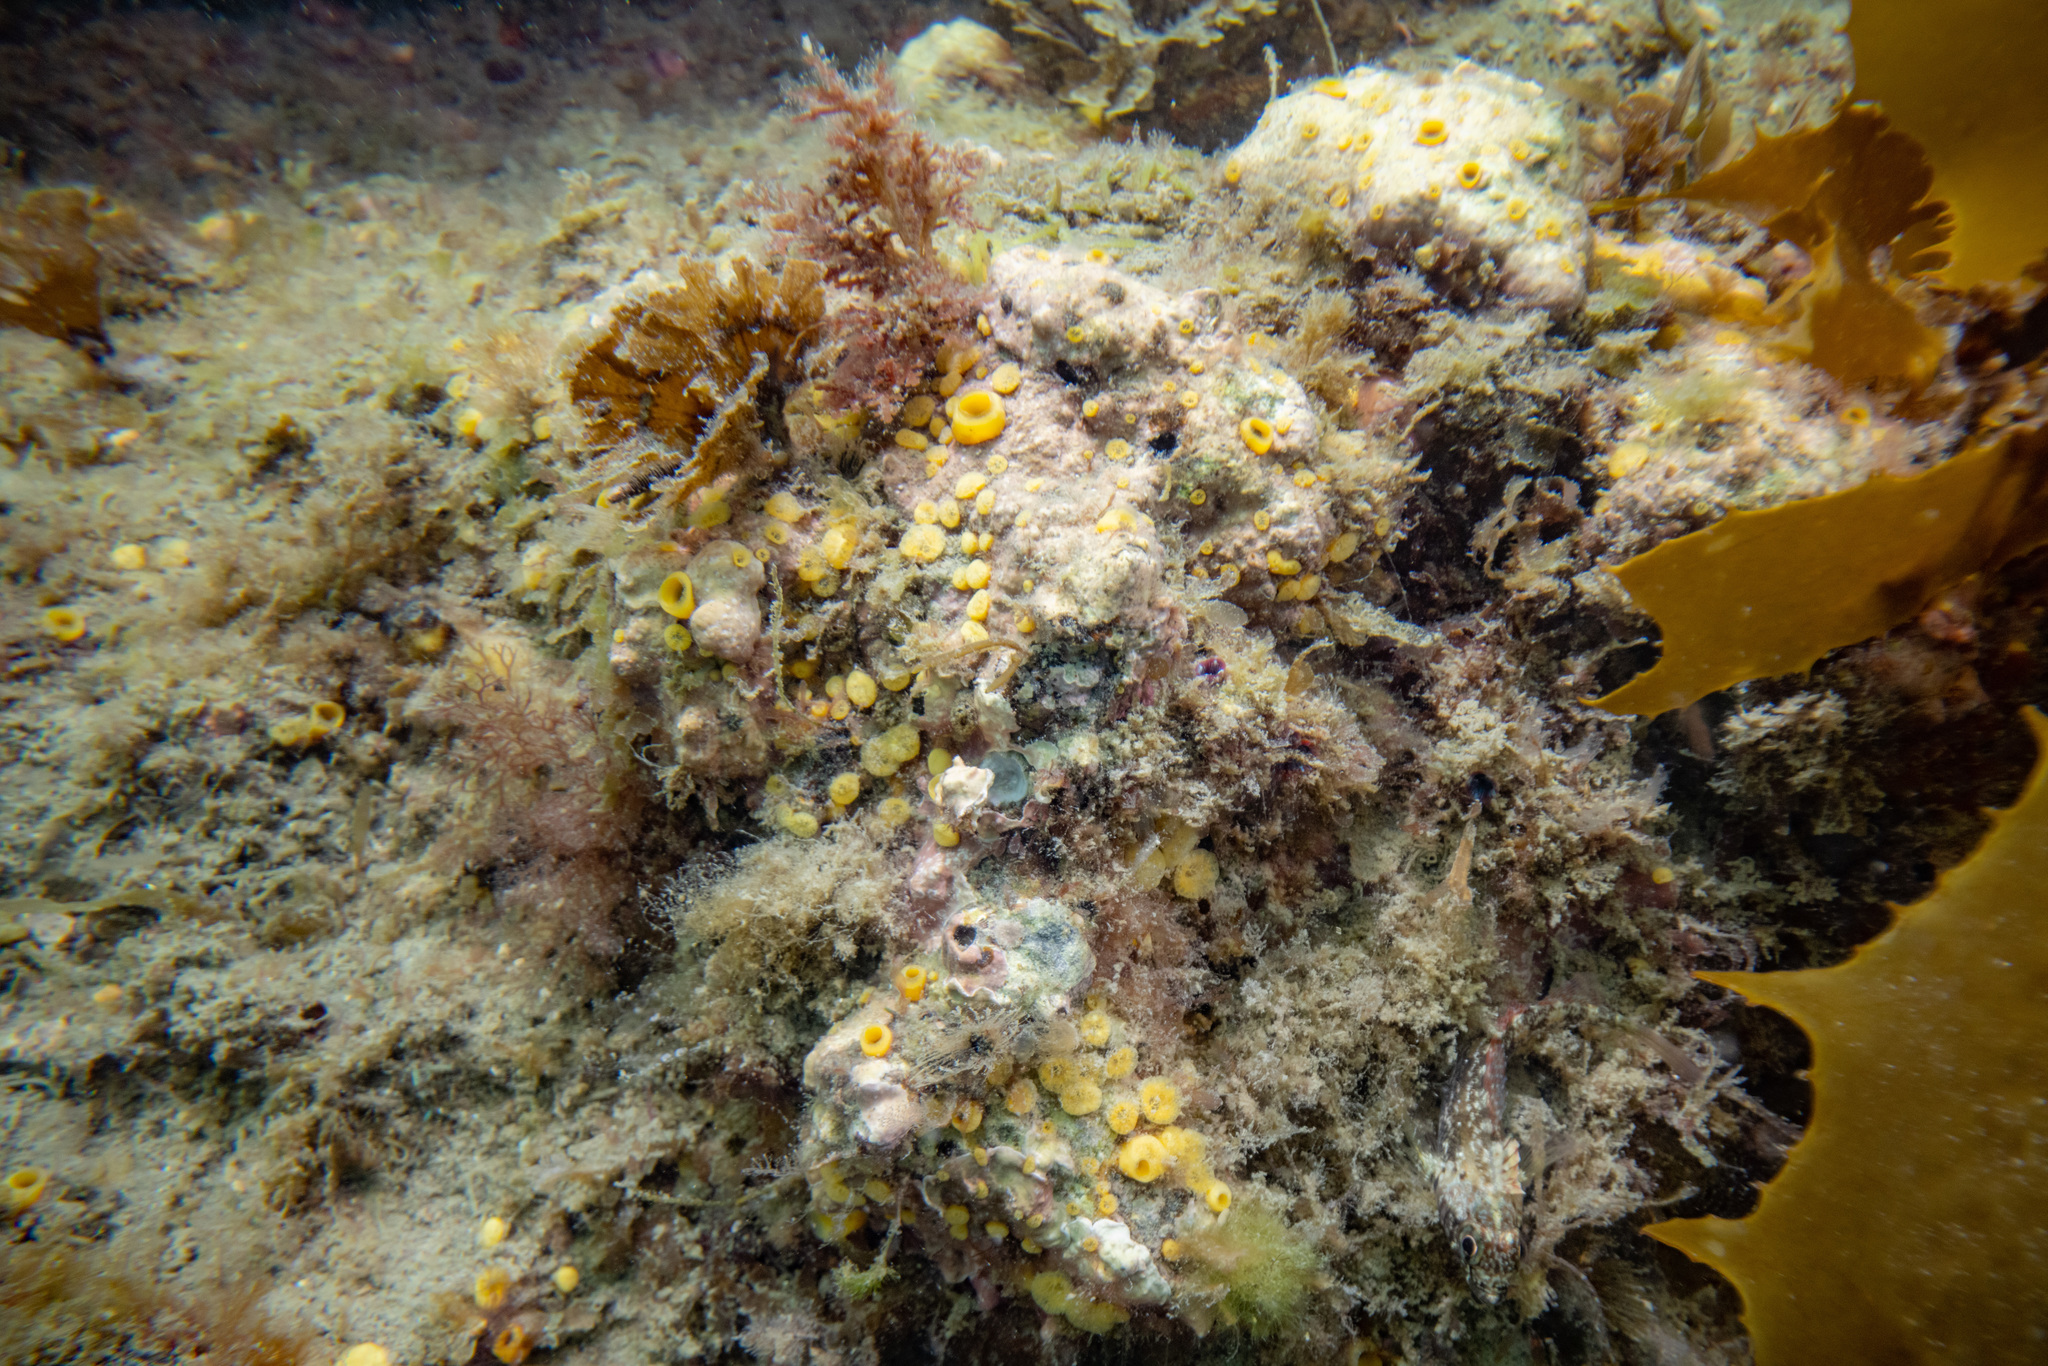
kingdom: Animalia
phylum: Porifera
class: Demospongiae
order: Clionaida
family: Clionaidae
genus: Cliona
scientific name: Cliona celata
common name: Boring sponge
